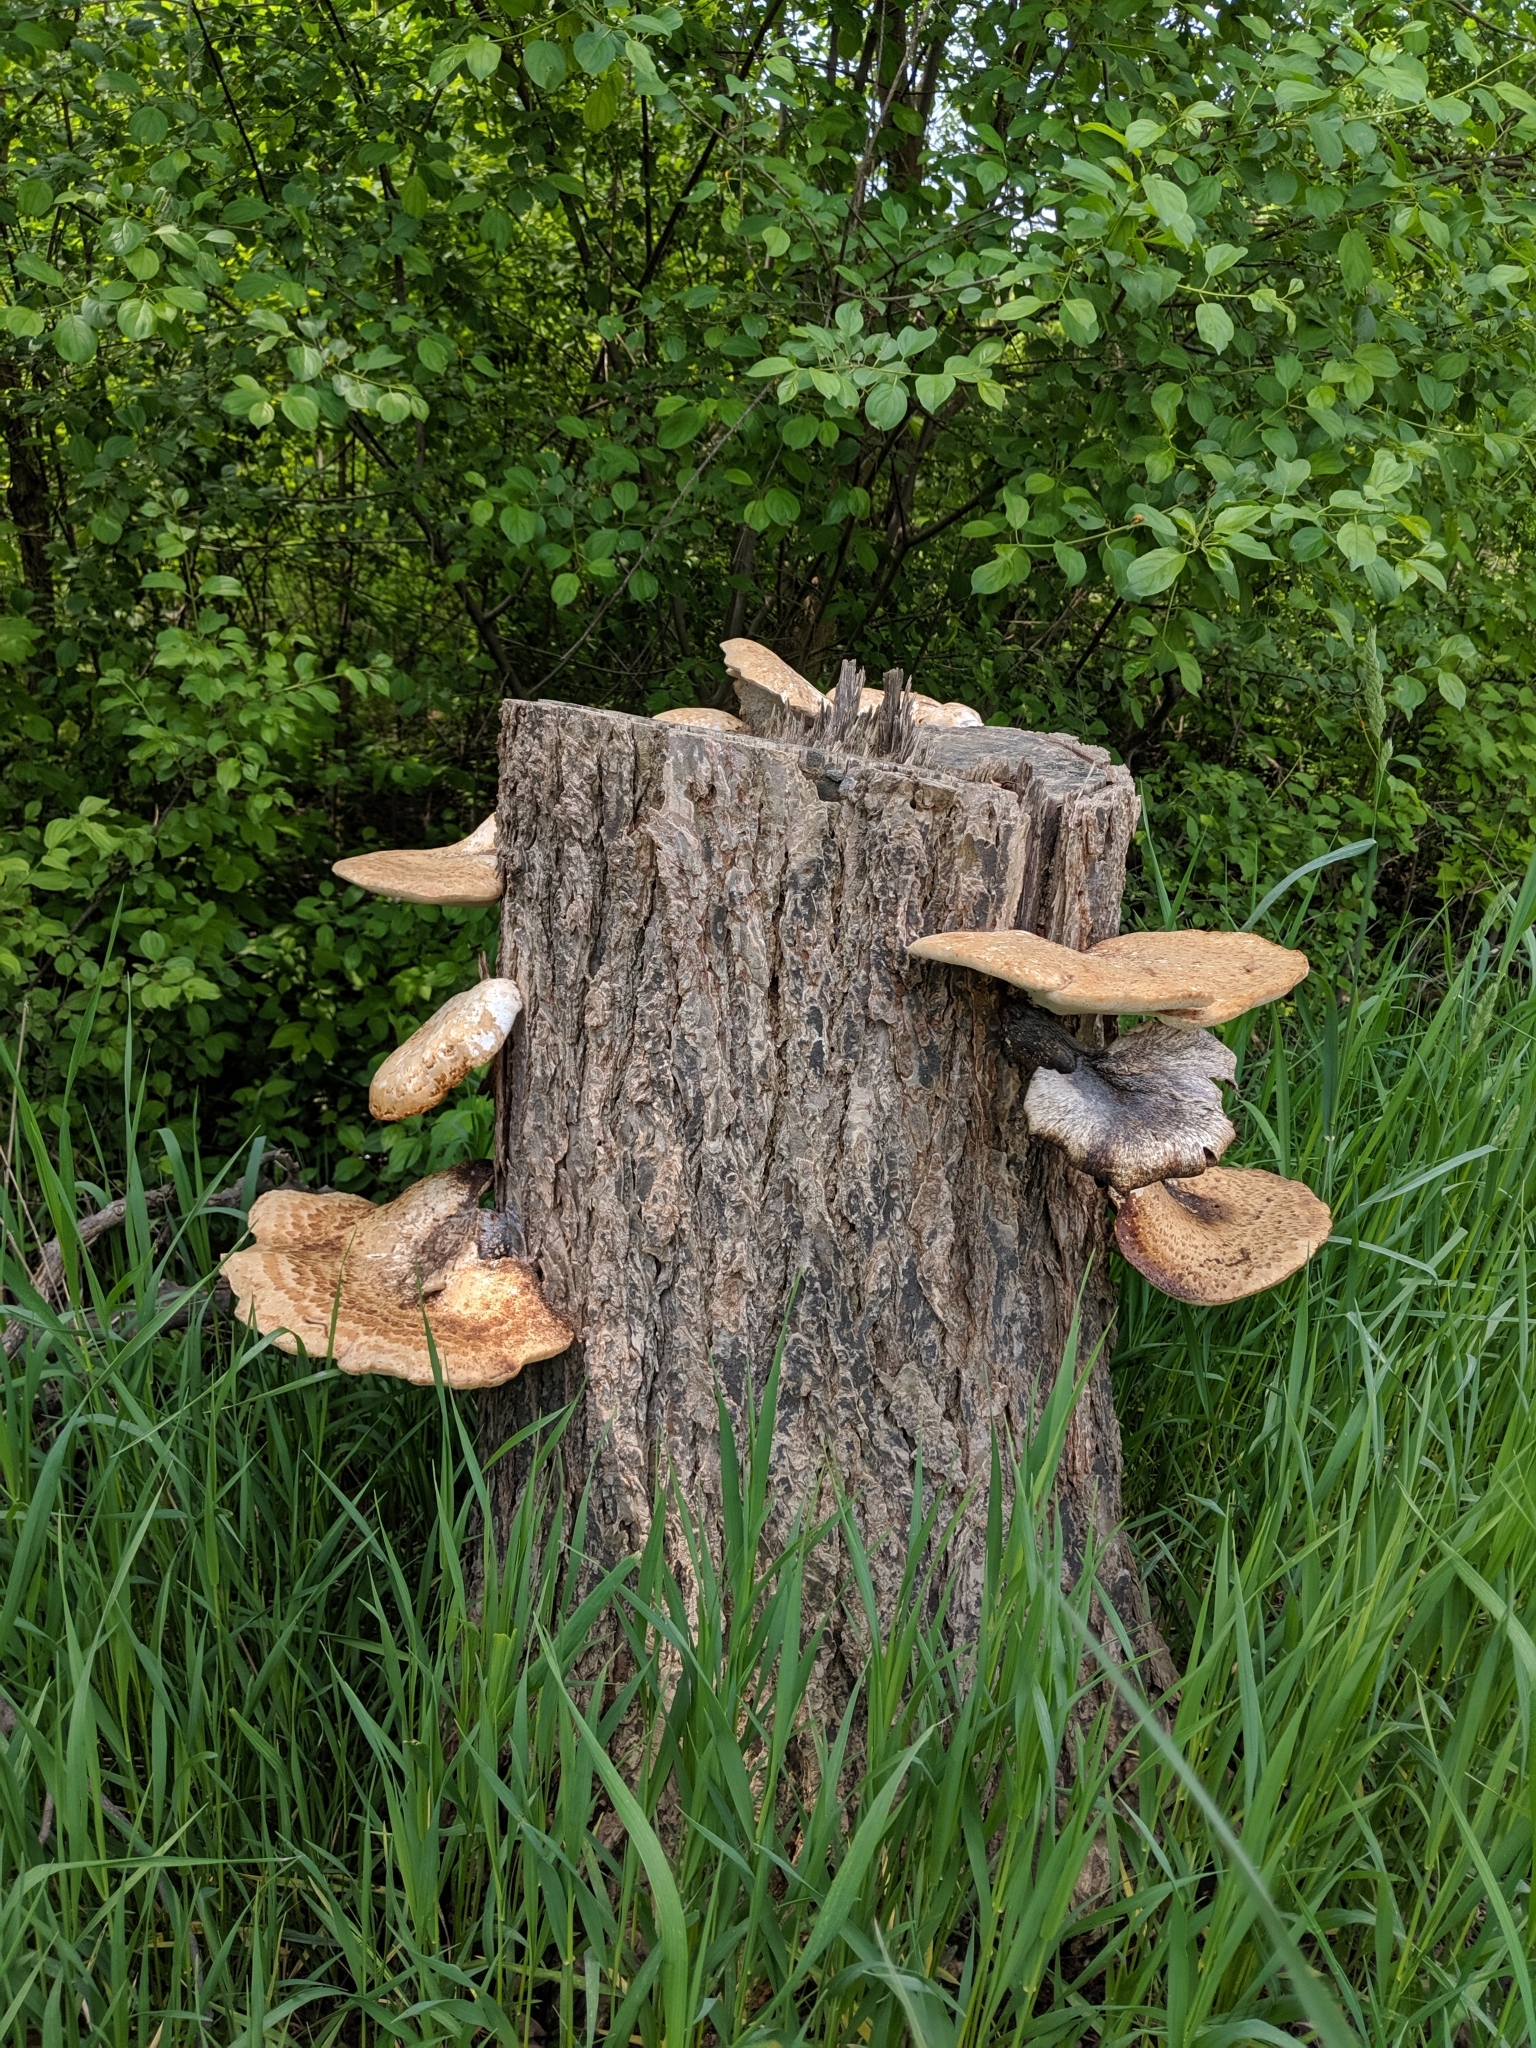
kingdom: Fungi
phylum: Basidiomycota
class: Agaricomycetes
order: Polyporales
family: Polyporaceae
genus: Cerioporus
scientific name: Cerioporus squamosus
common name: Dryad's saddle
